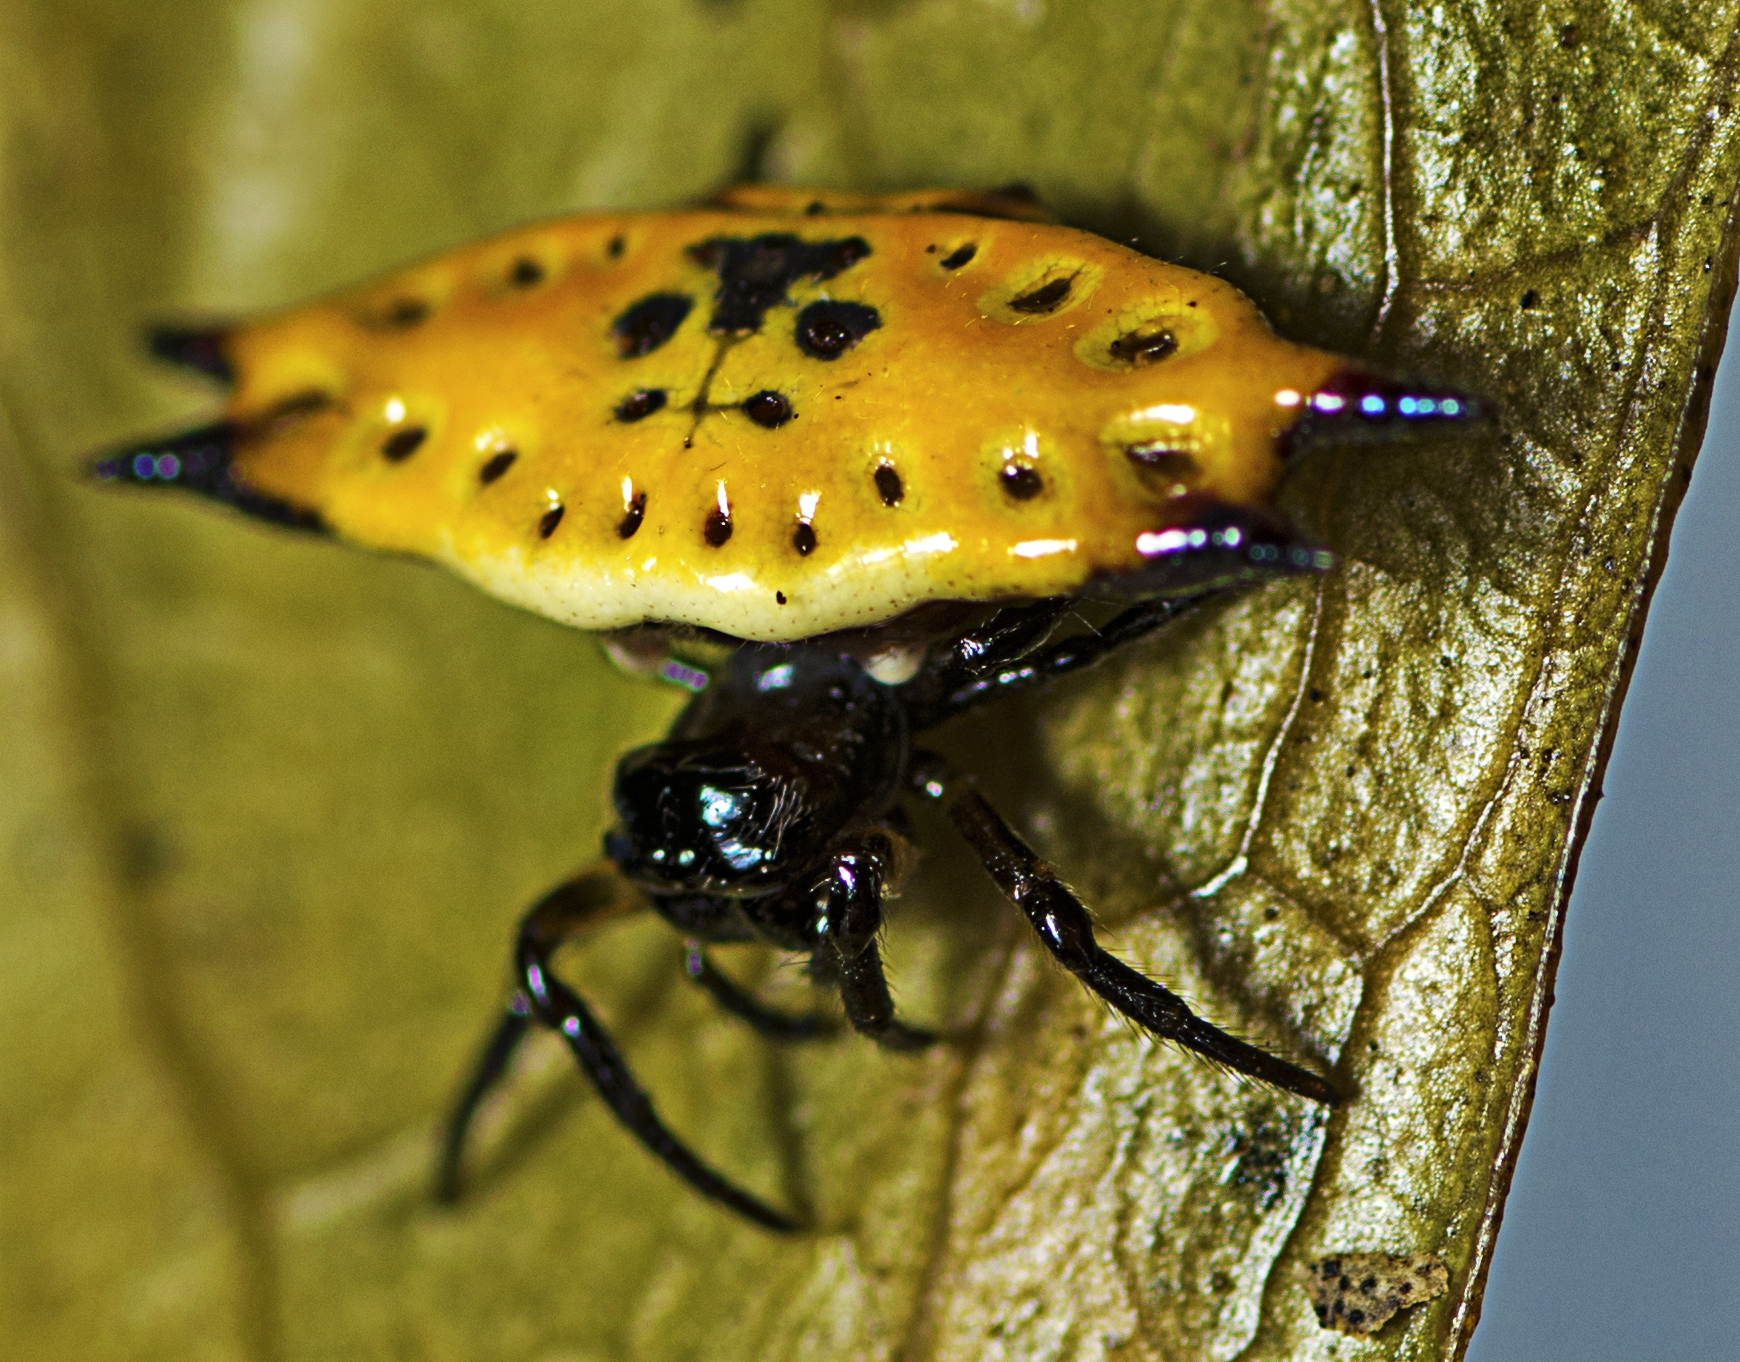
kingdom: Animalia
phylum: Arthropoda
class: Arachnida
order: Araneae
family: Araneidae
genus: Gasteracantha
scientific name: Gasteracantha quadrispinosa
